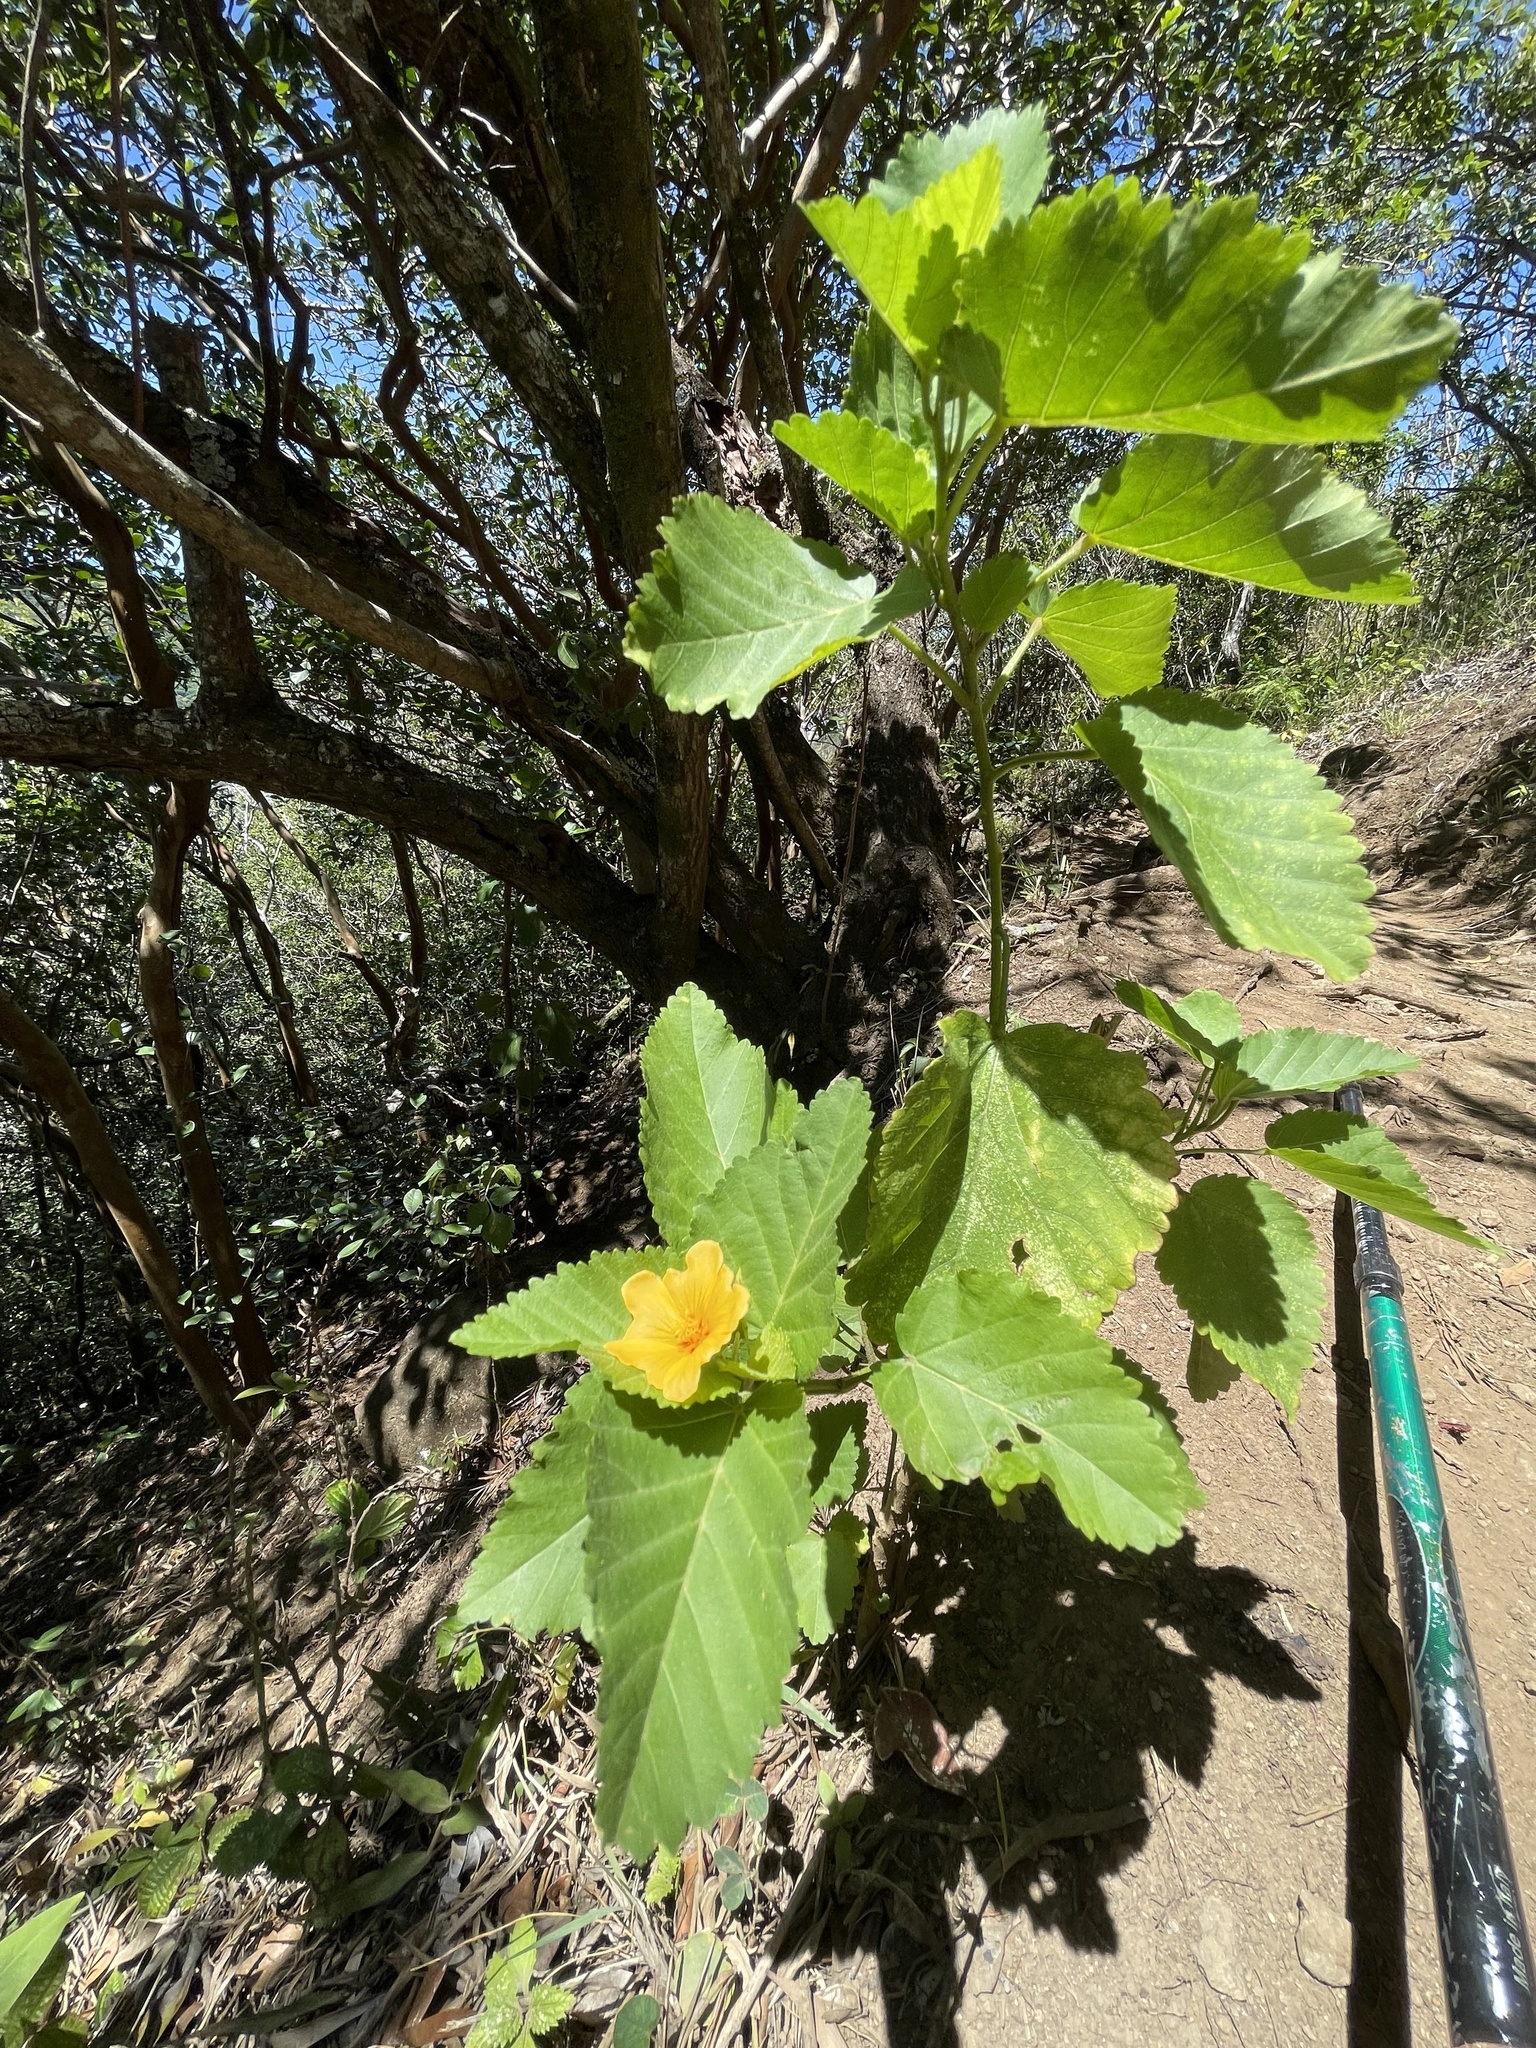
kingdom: Plantae
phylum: Tracheophyta
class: Magnoliopsida
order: Malvales
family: Malvaceae
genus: Sida
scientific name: Sida fallax
